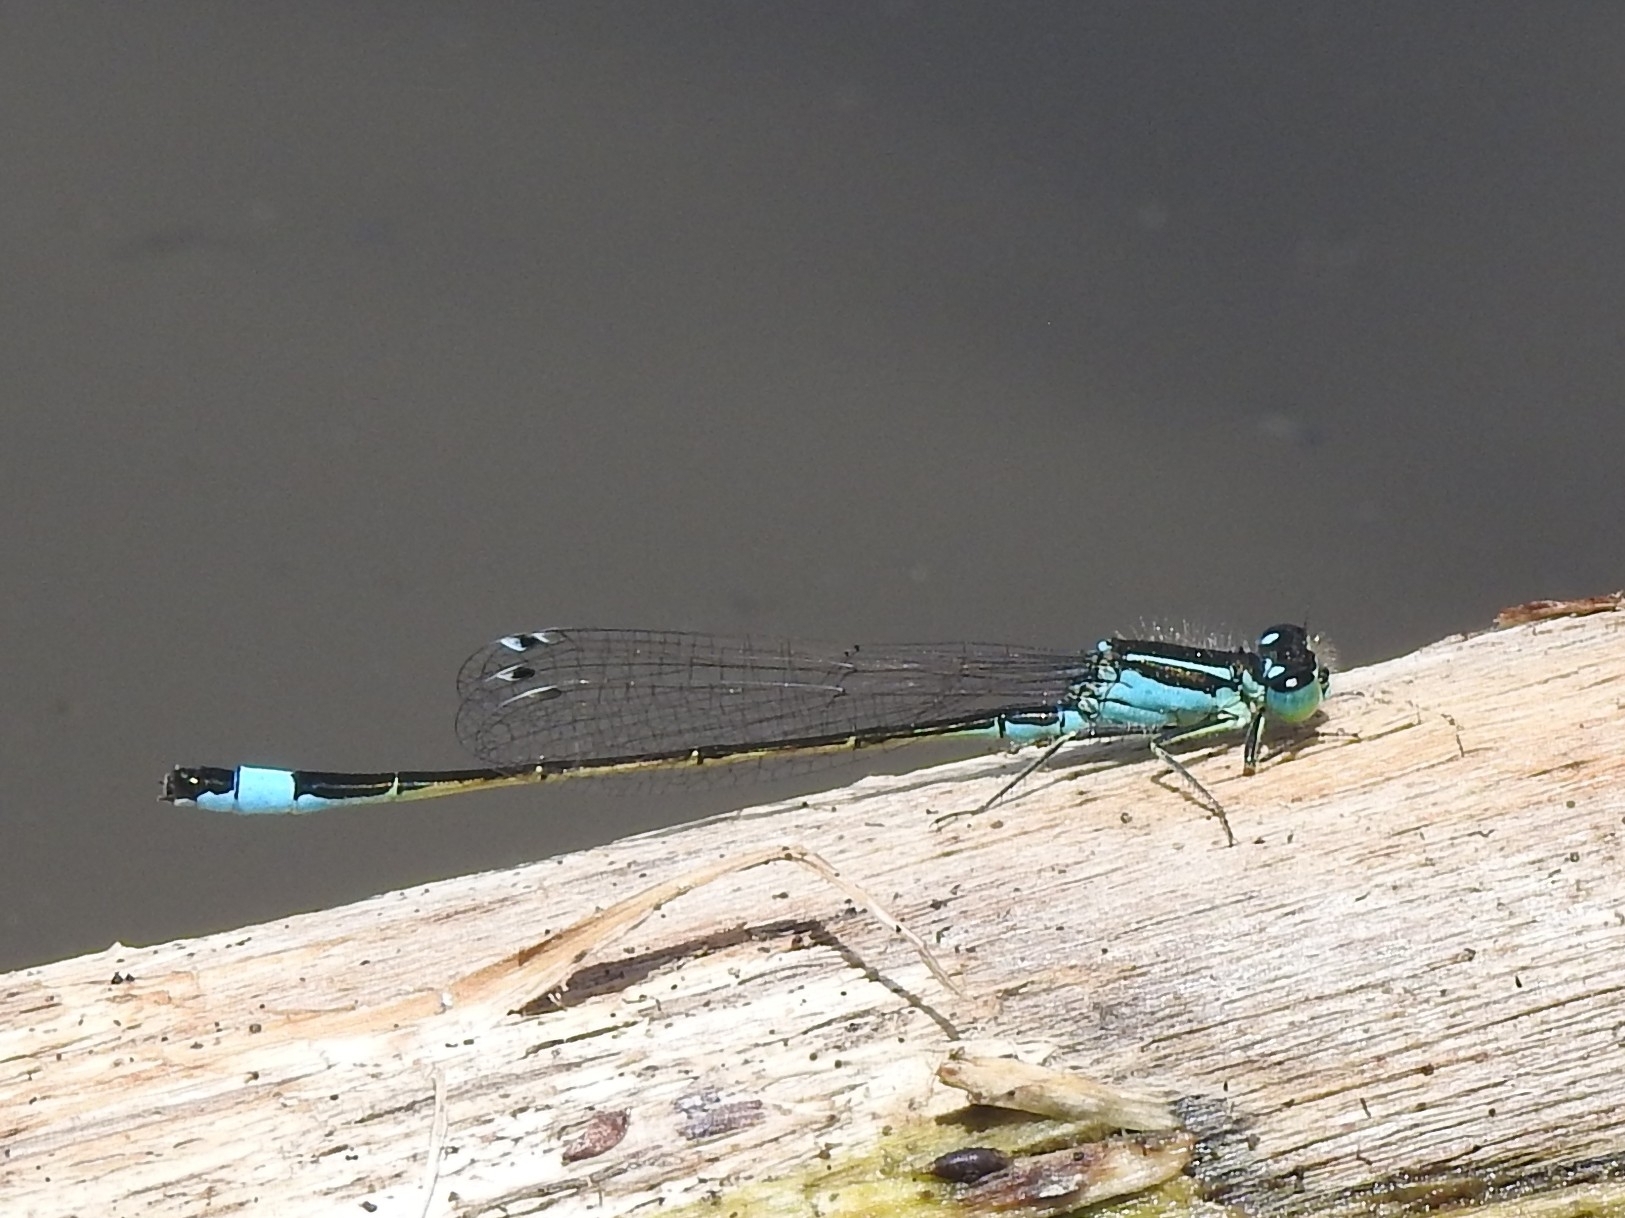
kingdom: Animalia
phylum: Arthropoda
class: Insecta
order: Odonata
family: Coenagrionidae
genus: Ischnura
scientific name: Ischnura elegans
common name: Blue-tailed damselfly
